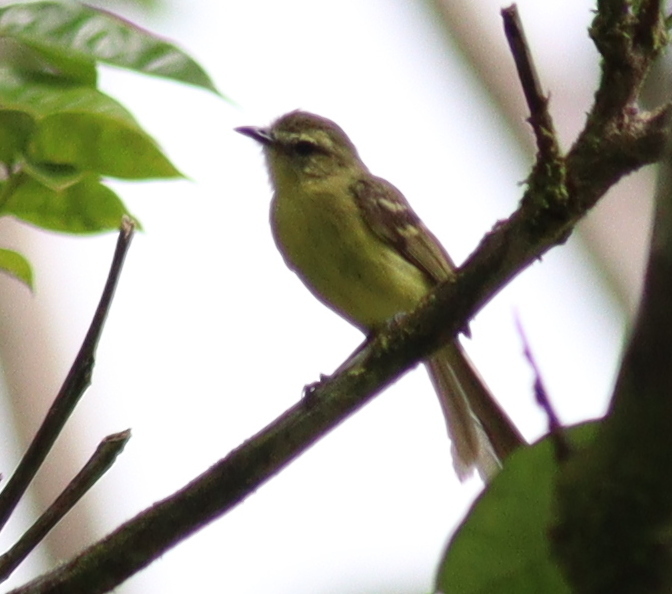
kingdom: Animalia
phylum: Chordata
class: Aves
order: Passeriformes
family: Tyrannidae
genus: Capsiempis
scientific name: Capsiempis flaveola
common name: Yellow tyrannulet
